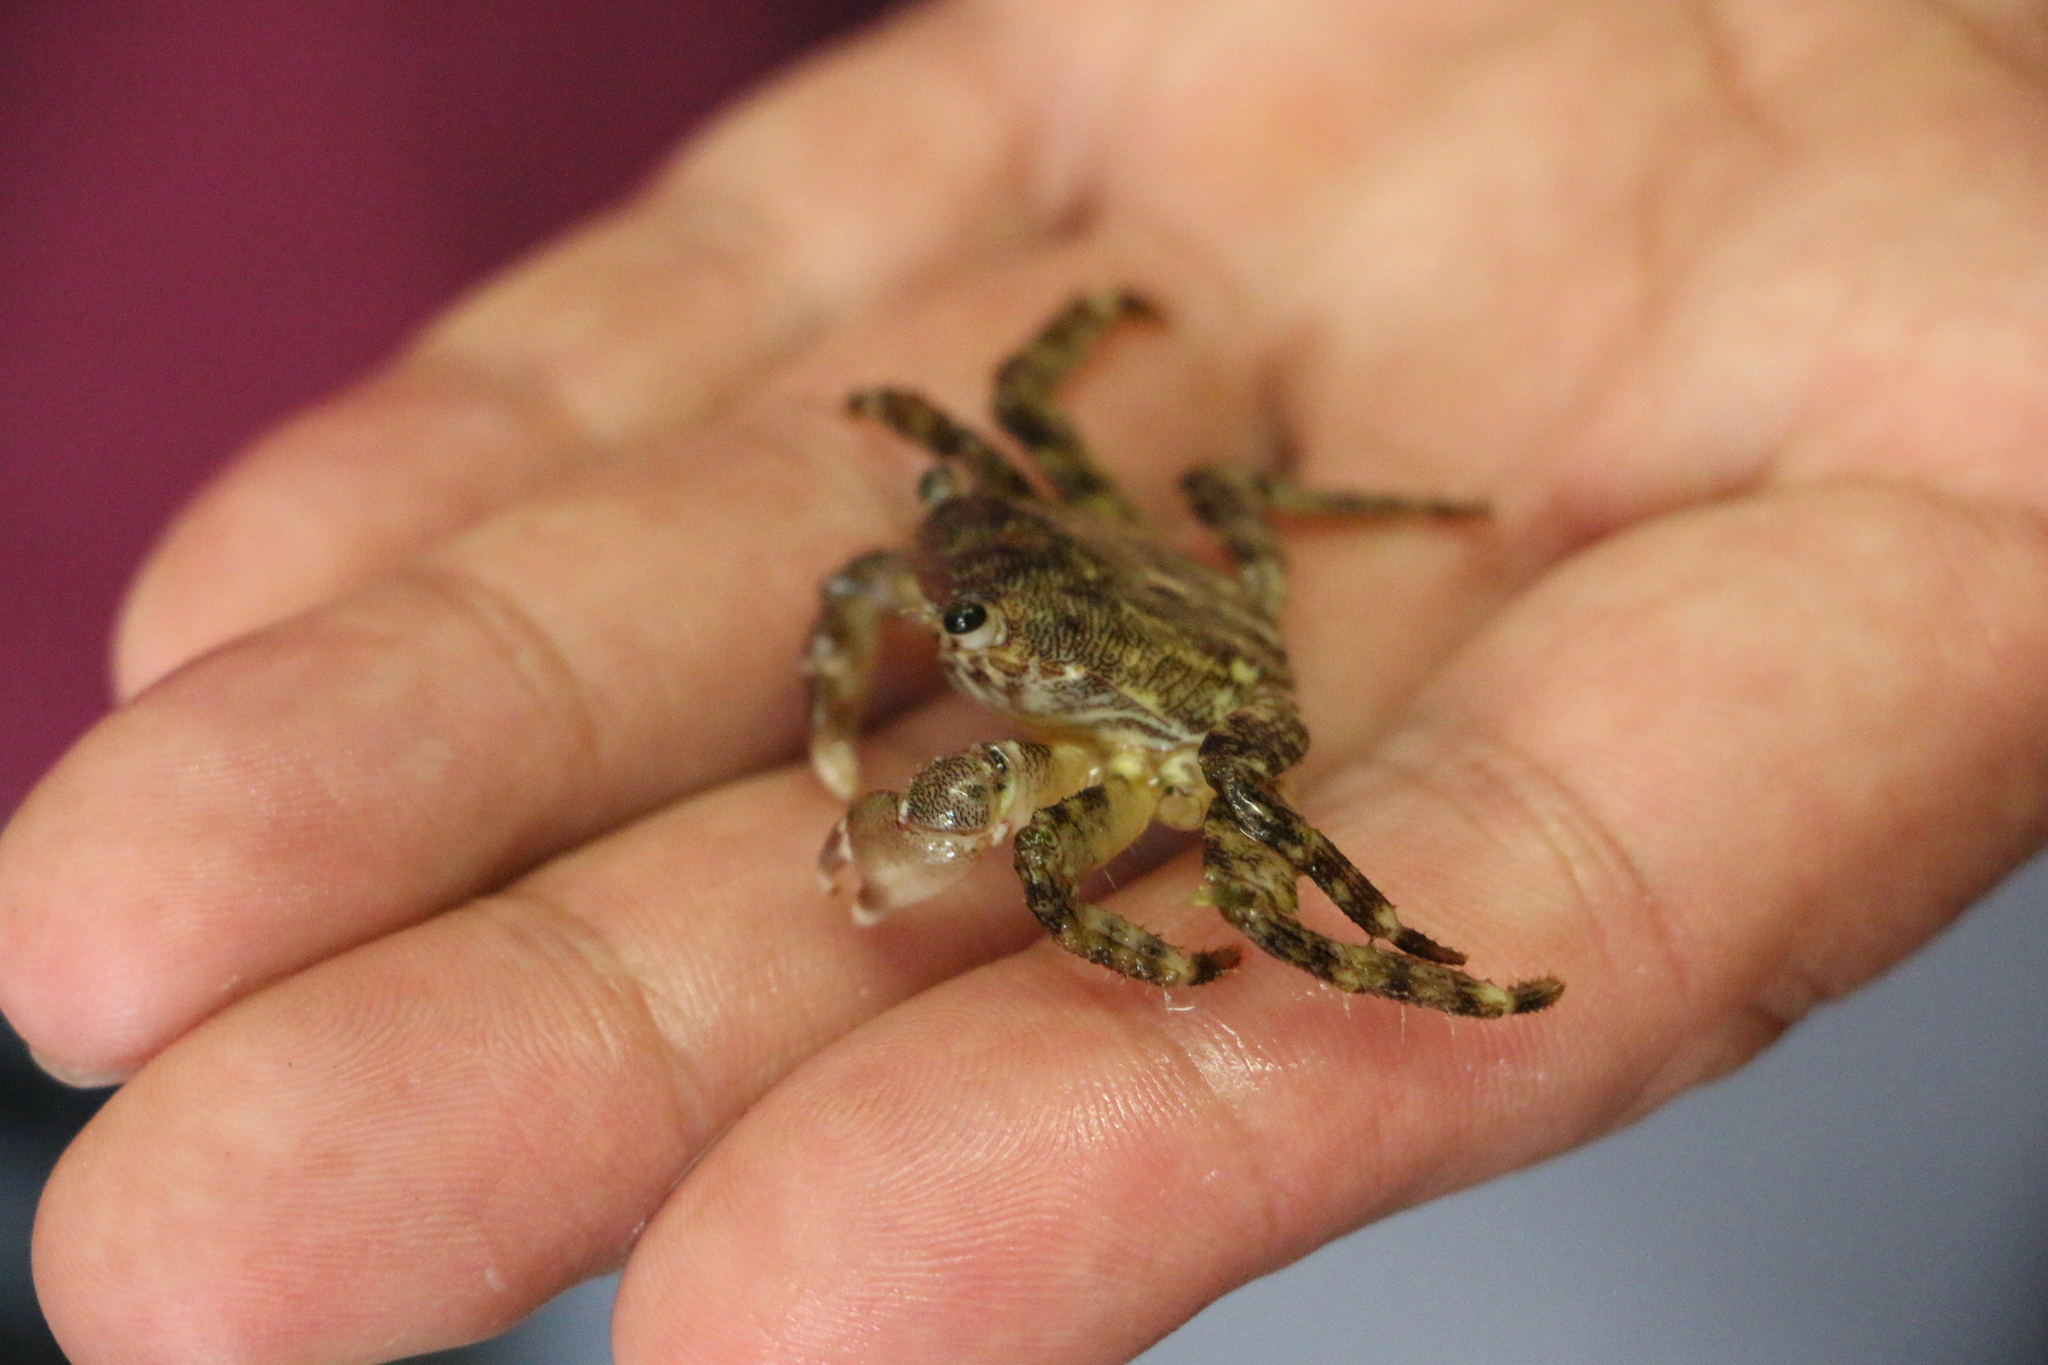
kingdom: Animalia
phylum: Arthropoda
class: Maxillopoda
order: Kentrogonida
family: Sacculinidae
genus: Sacculina
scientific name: Sacculina carcini
